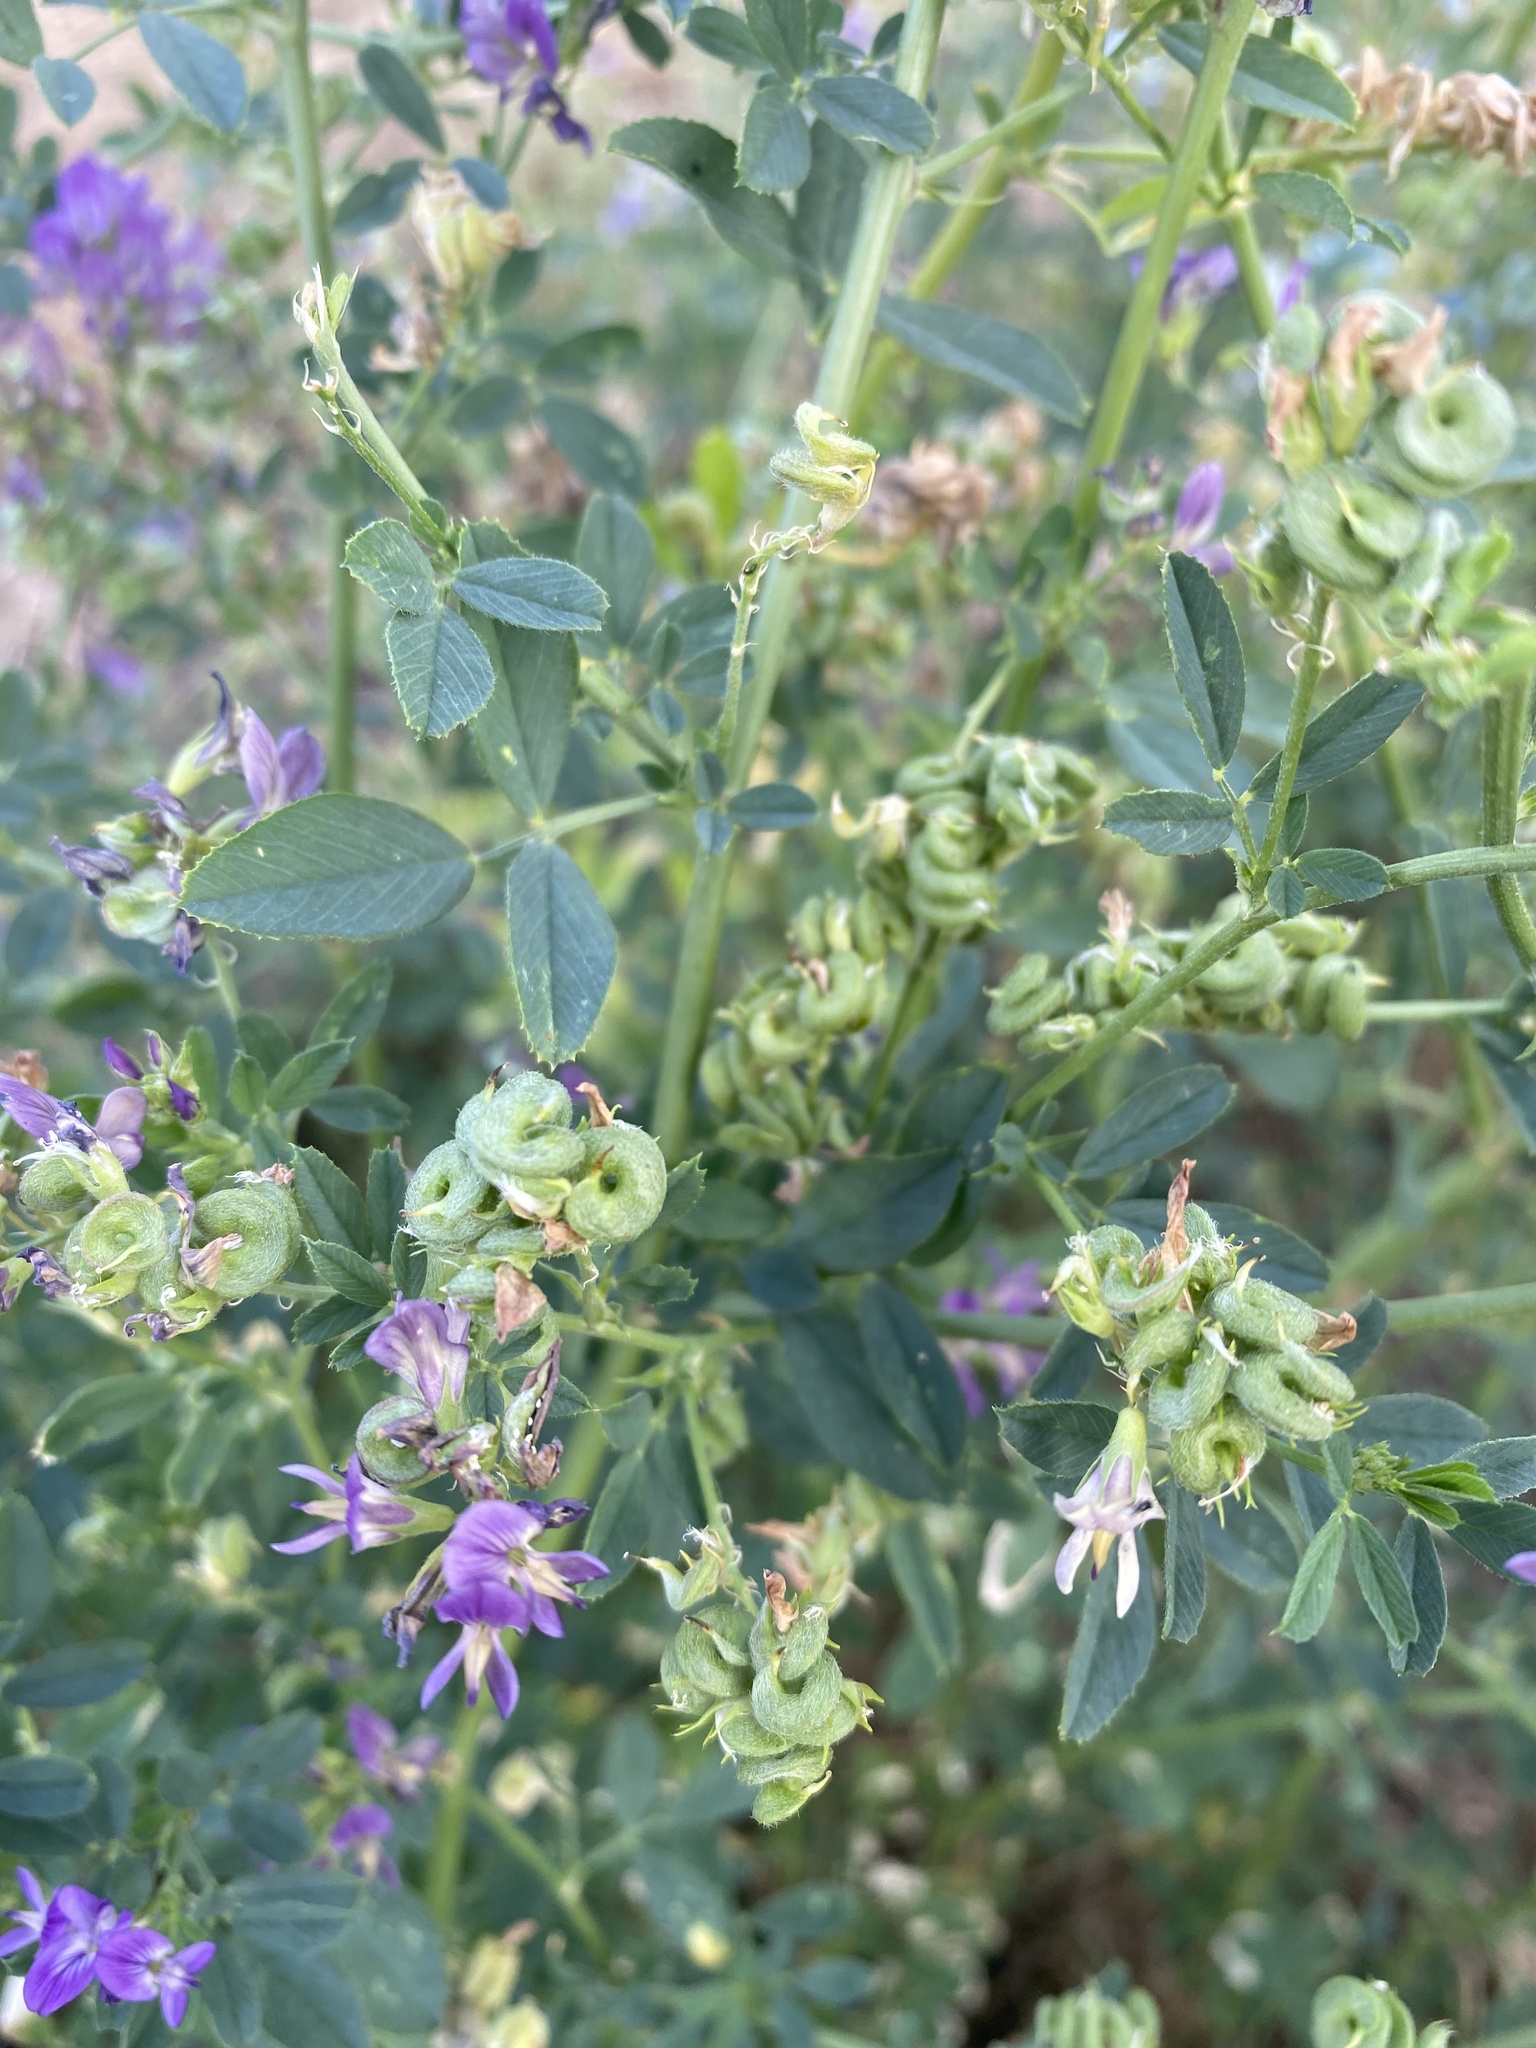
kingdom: Plantae
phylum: Tracheophyta
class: Magnoliopsida
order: Fabales
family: Fabaceae
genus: Medicago
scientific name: Medicago sativa
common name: Alfalfa
